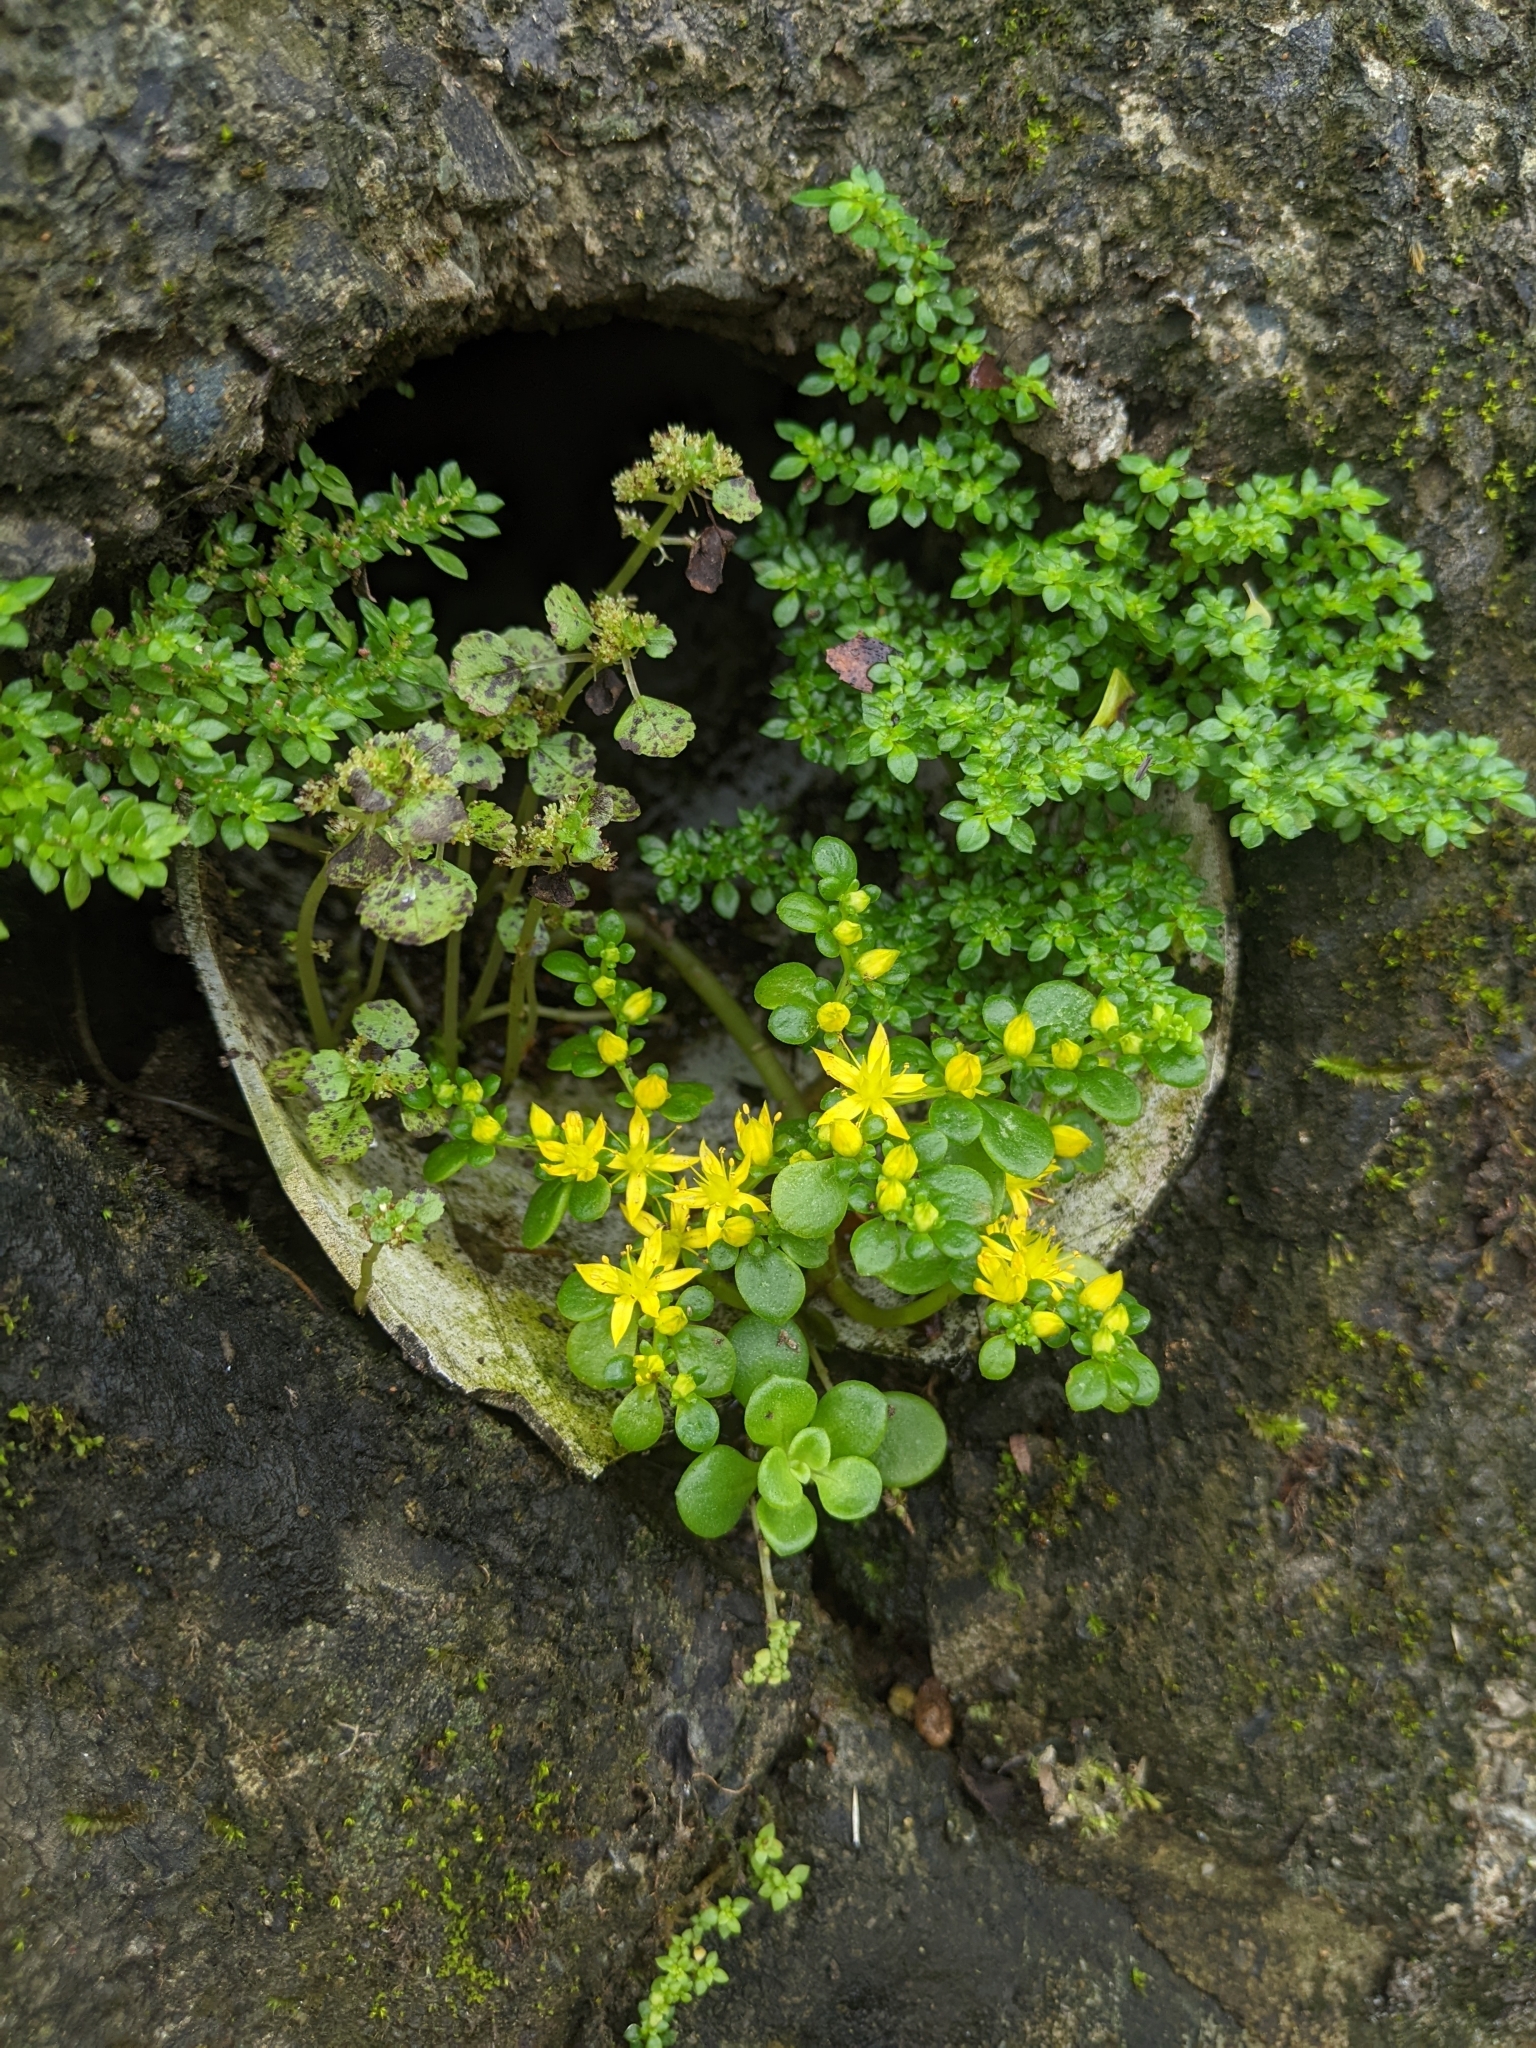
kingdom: Plantae
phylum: Tracheophyta
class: Magnoliopsida
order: Saxifragales
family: Crassulaceae
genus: Sedum
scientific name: Sedum formosanum
